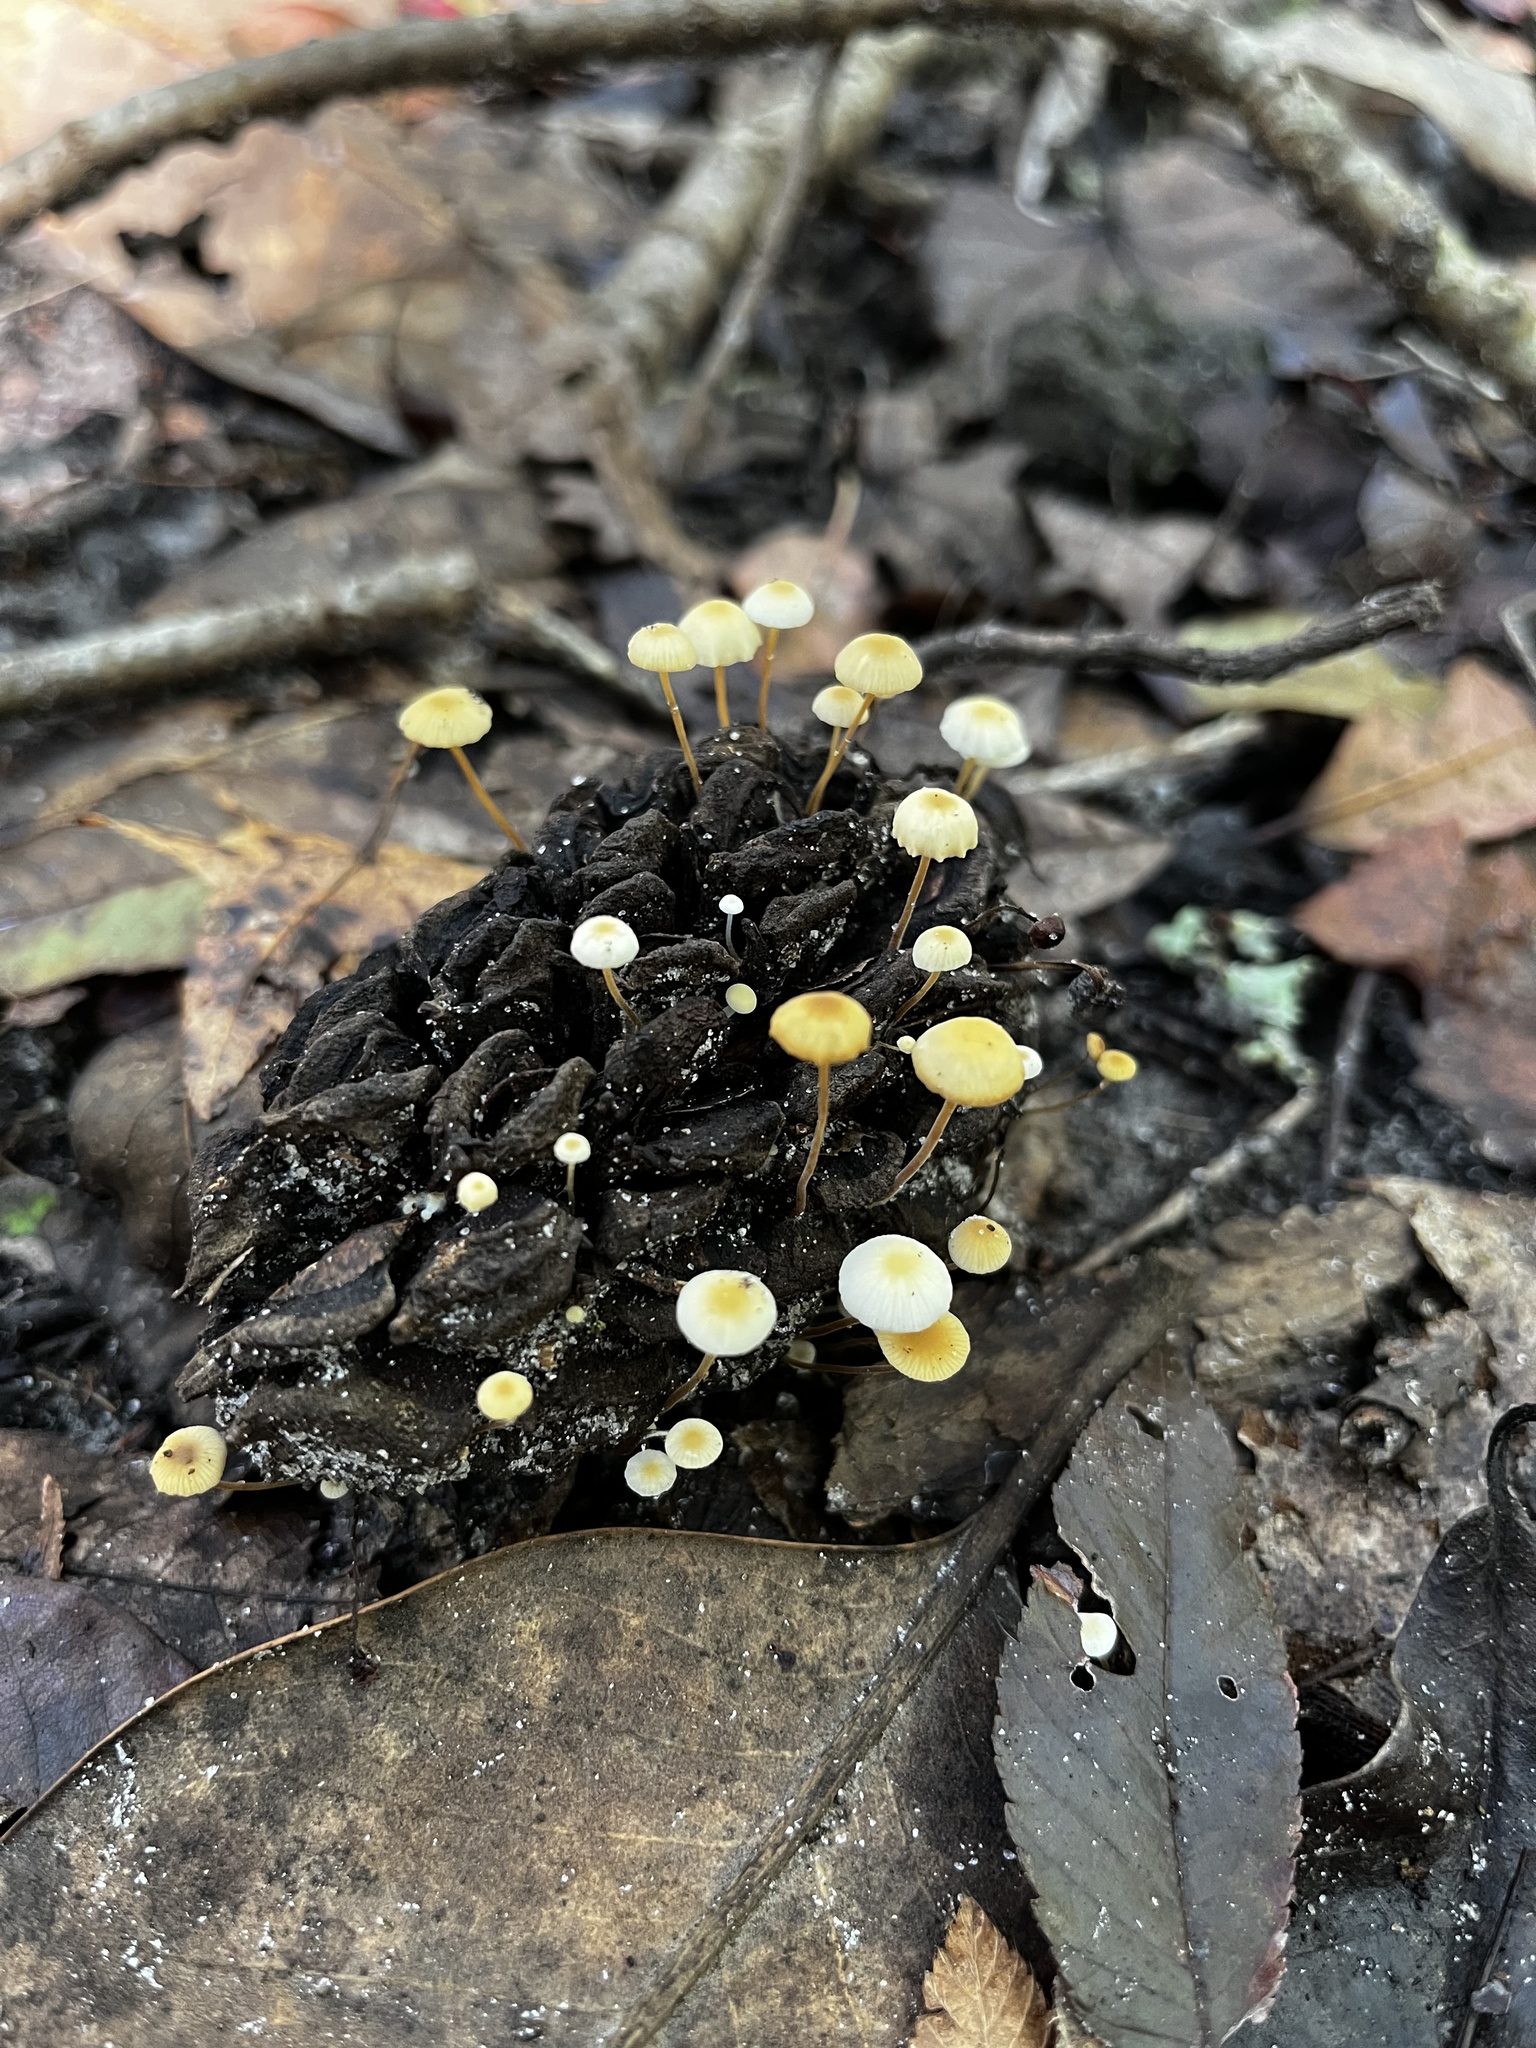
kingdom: Fungi
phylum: Basidiomycota
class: Agaricomycetes
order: Agaricales
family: Physalacriaceae
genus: Strobilurus
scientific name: Strobilurus conigenoides
